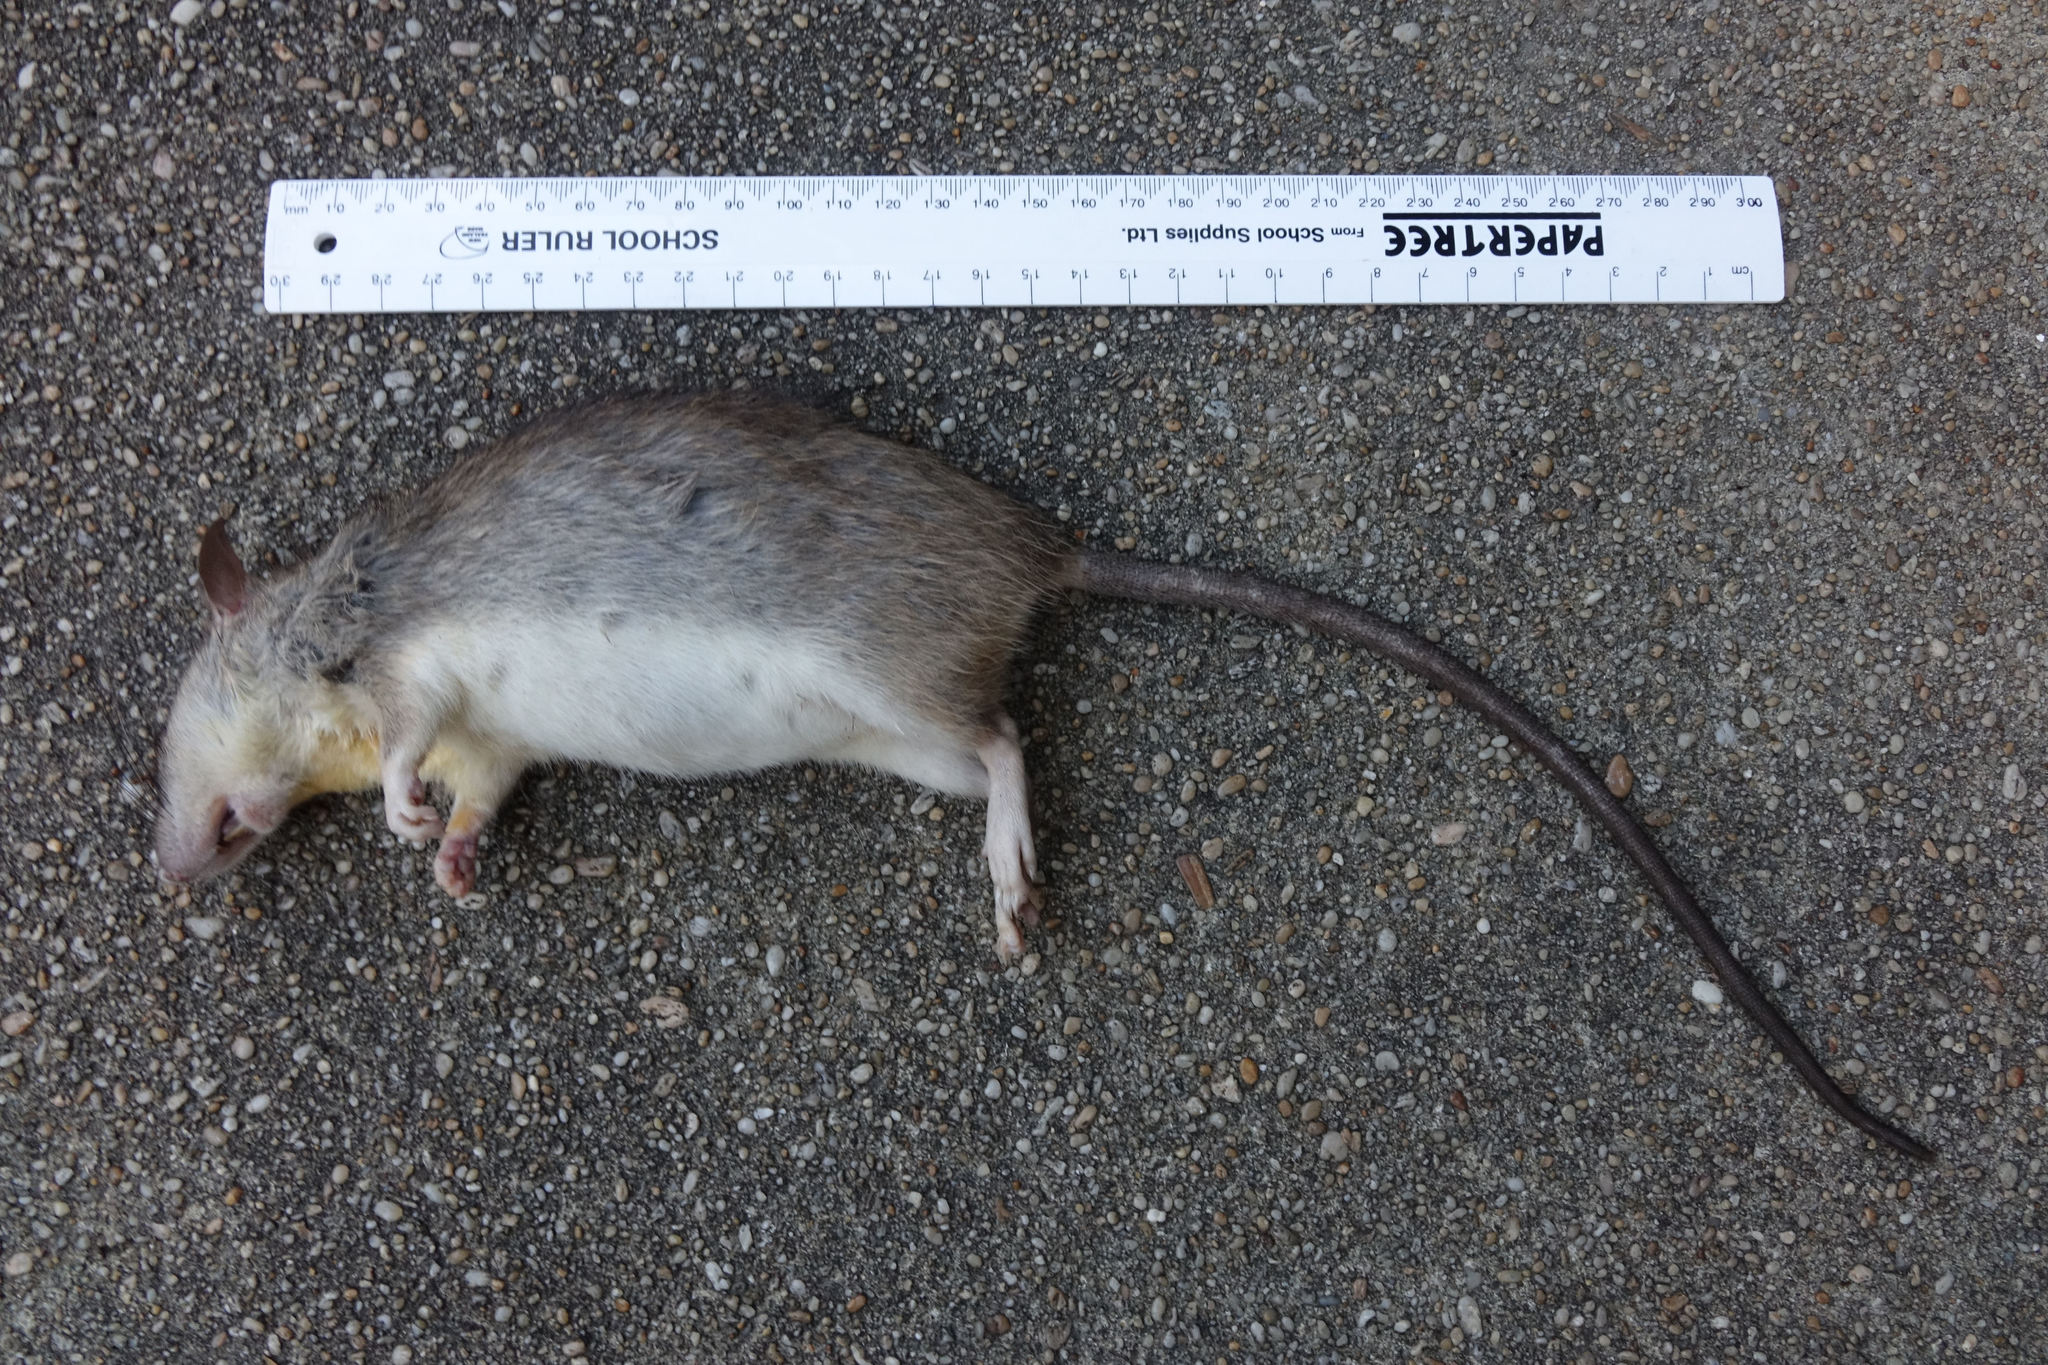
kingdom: Animalia
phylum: Chordata
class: Mammalia
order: Rodentia
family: Muridae
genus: Rattus
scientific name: Rattus rattus
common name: Black rat
